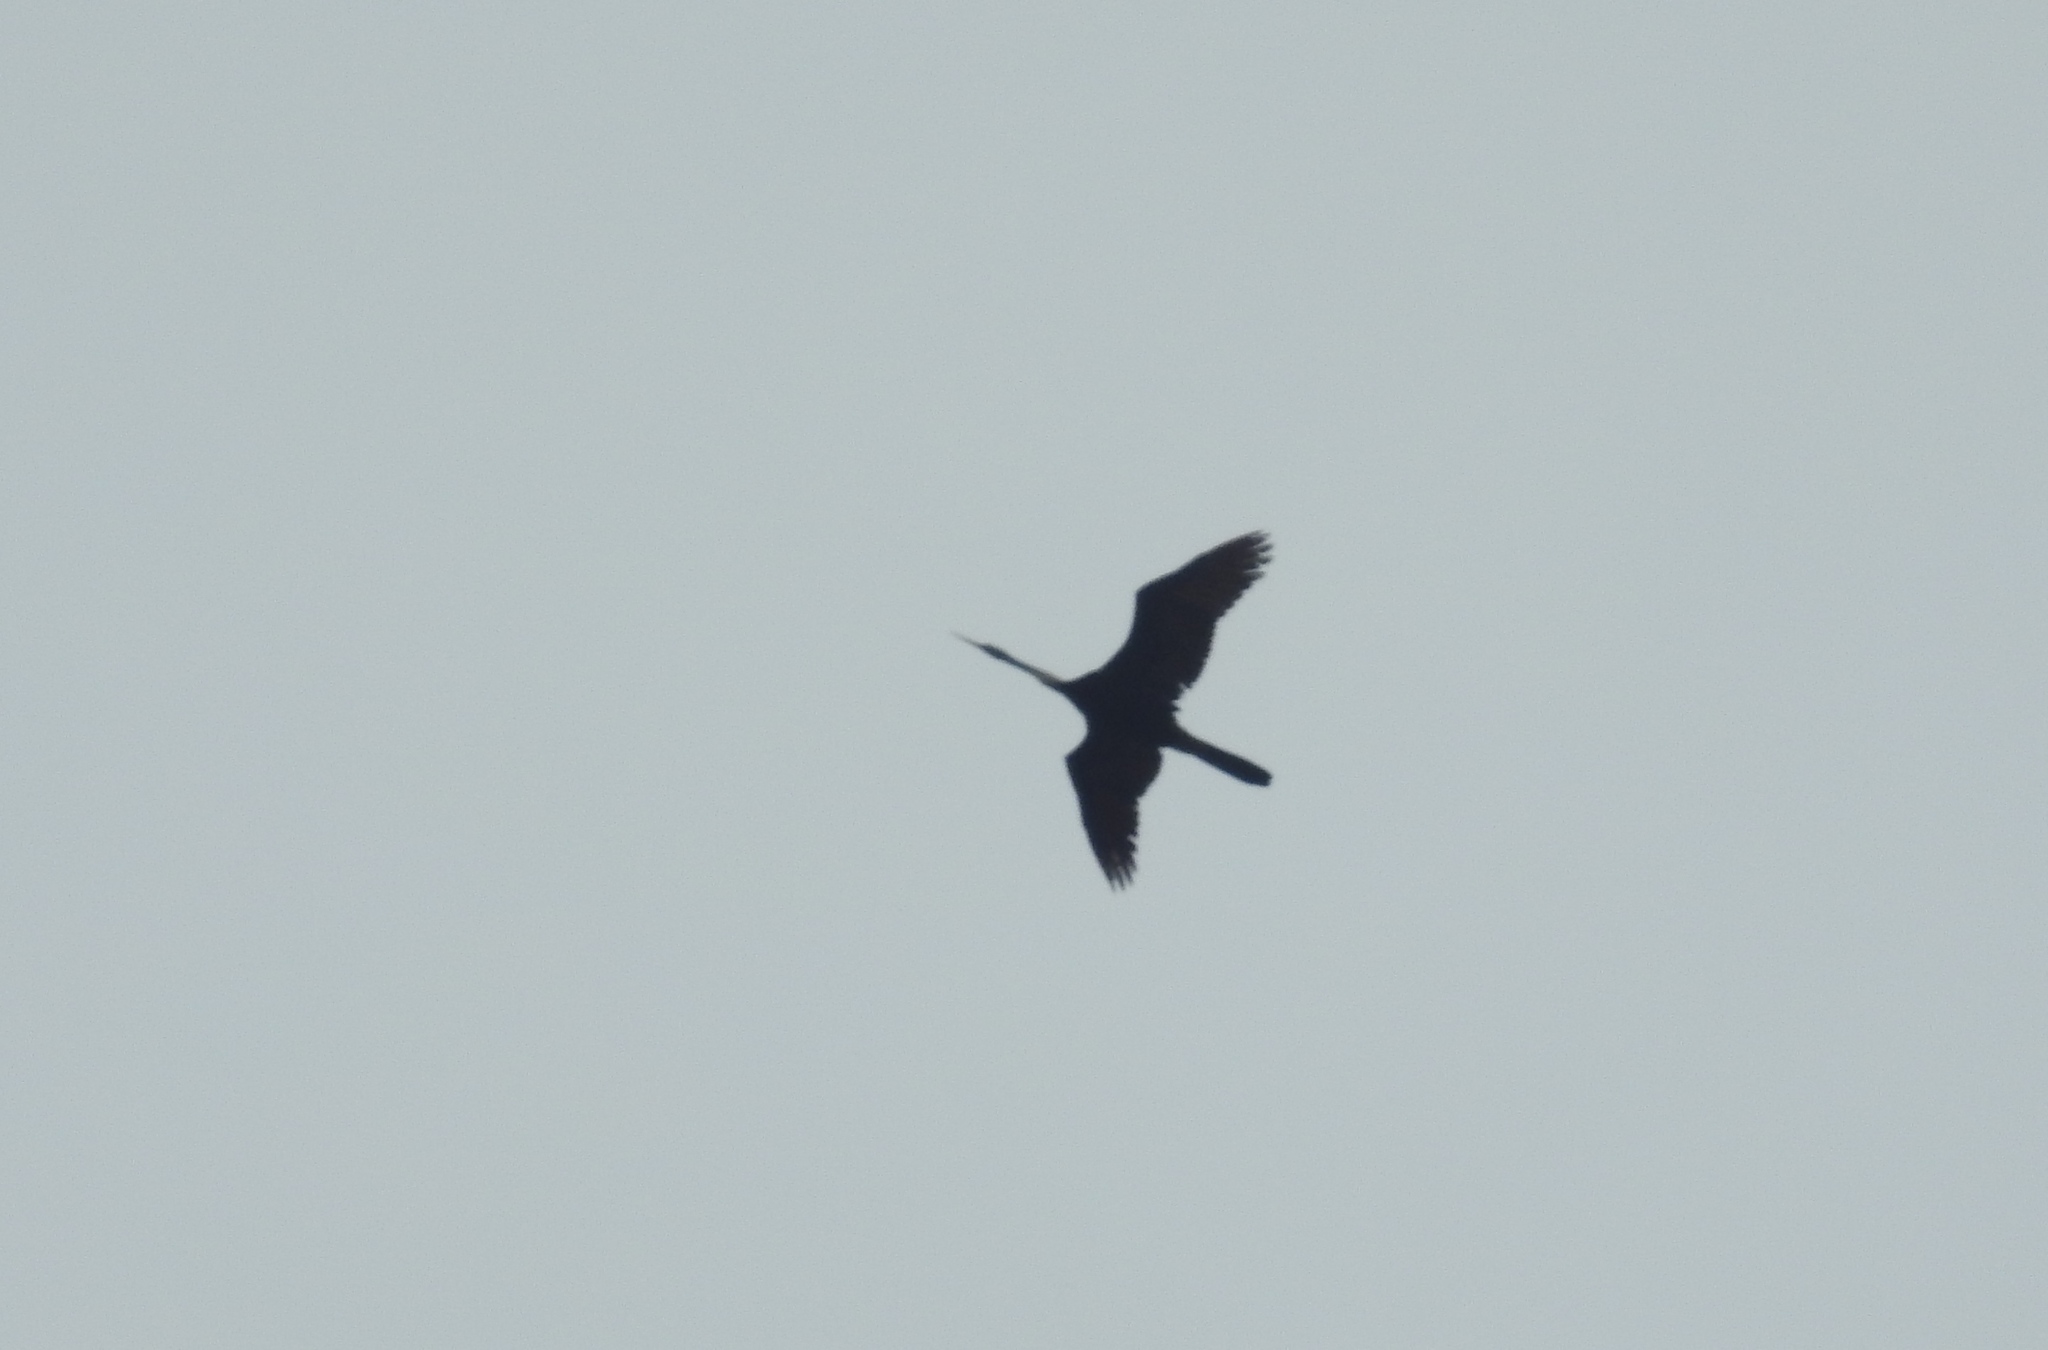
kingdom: Animalia
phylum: Chordata
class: Aves
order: Suliformes
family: Anhingidae
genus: Anhinga
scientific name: Anhinga melanogaster
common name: Oriental darter
